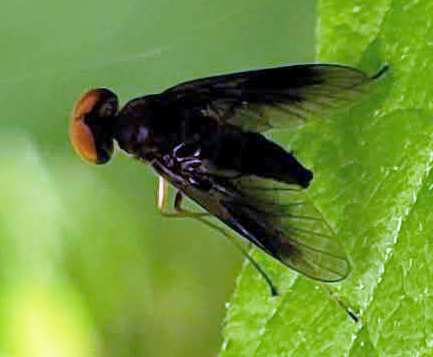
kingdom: Animalia
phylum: Arthropoda
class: Insecta
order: Diptera
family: Rhagionidae
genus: Chrysopilus
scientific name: Chrysopilus quadratus
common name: Quadrate snipe fly
